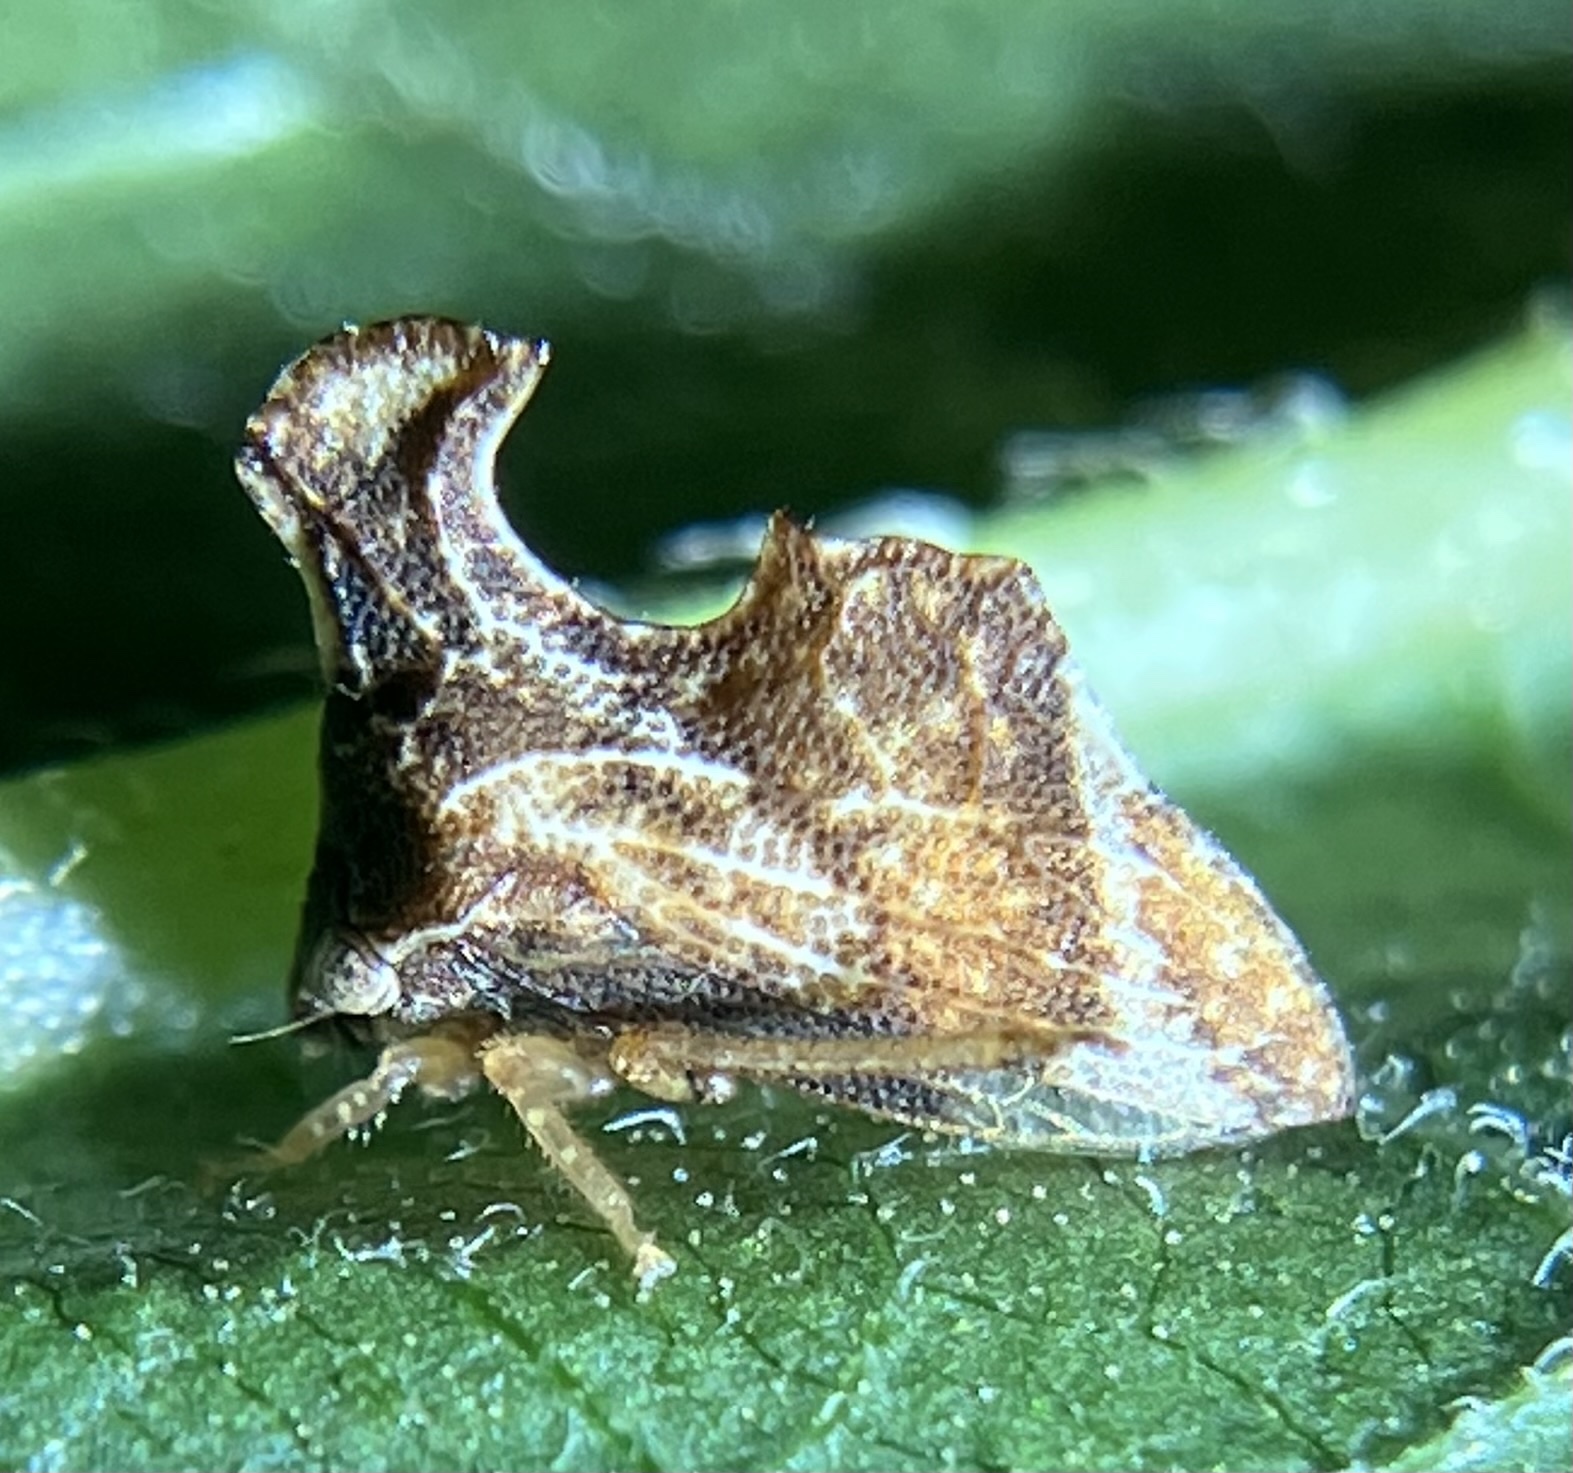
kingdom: Animalia
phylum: Arthropoda
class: Insecta
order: Hemiptera
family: Membracidae
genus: Entylia
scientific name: Entylia carinata
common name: Keeled treehopper
